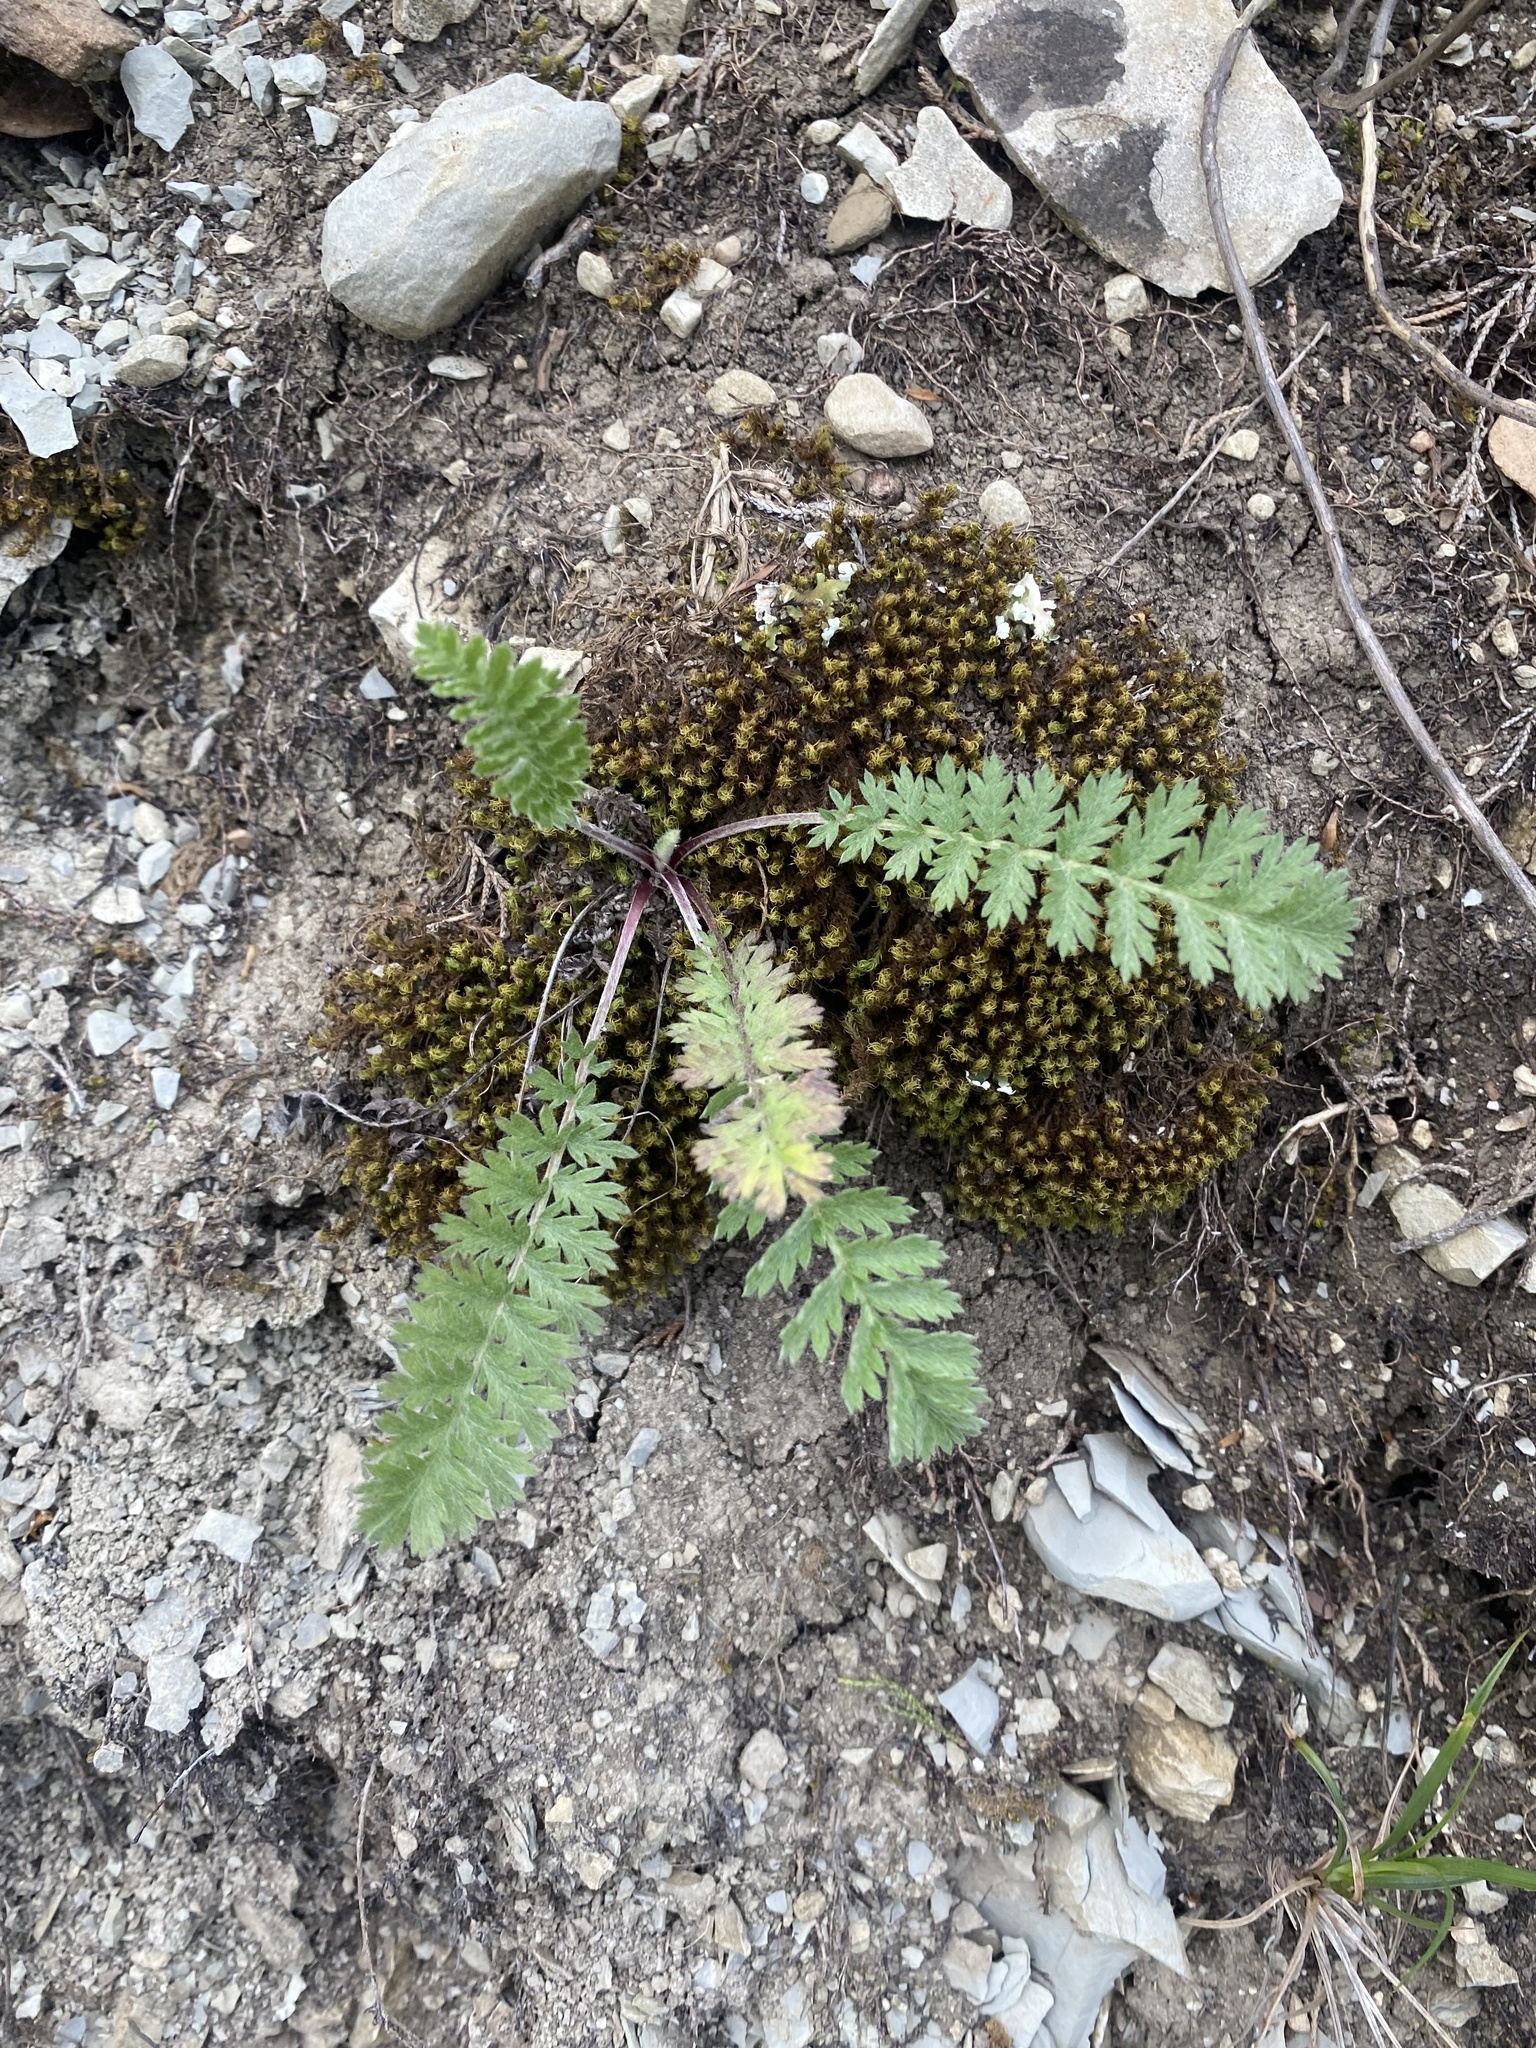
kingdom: Plantae
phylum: Tracheophyta
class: Magnoliopsida
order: Asterales
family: Asteraceae
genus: Tanacetum
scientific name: Tanacetum poteriifolium
